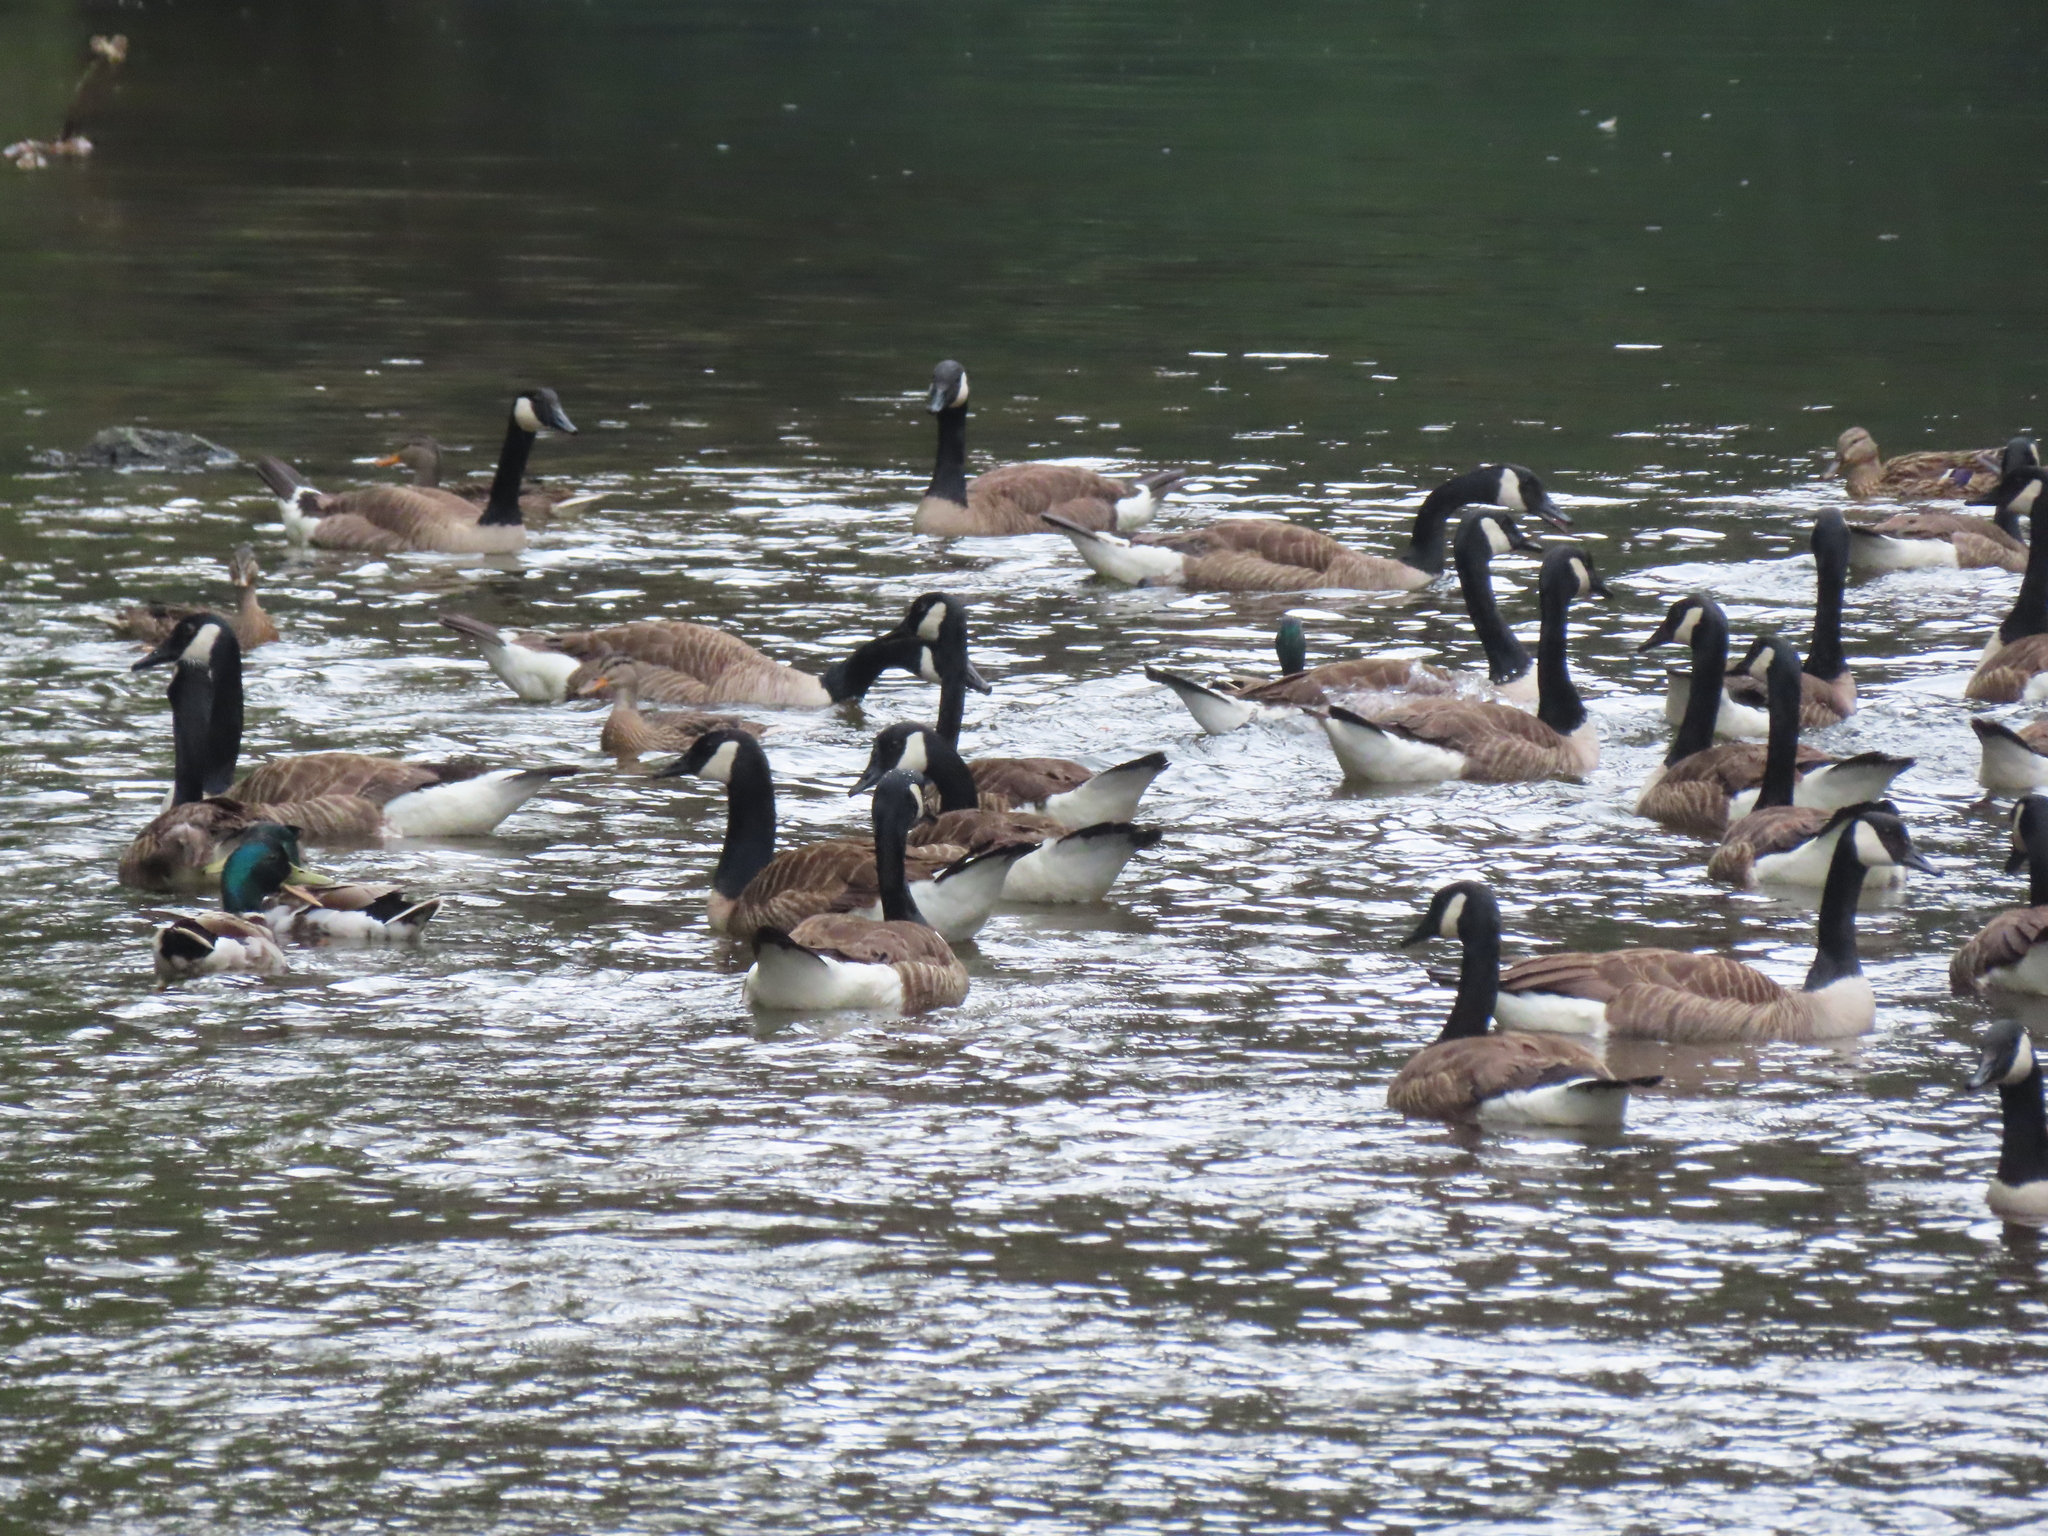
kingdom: Animalia
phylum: Chordata
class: Aves
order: Anseriformes
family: Anatidae
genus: Branta
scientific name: Branta canadensis
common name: Canada goose
